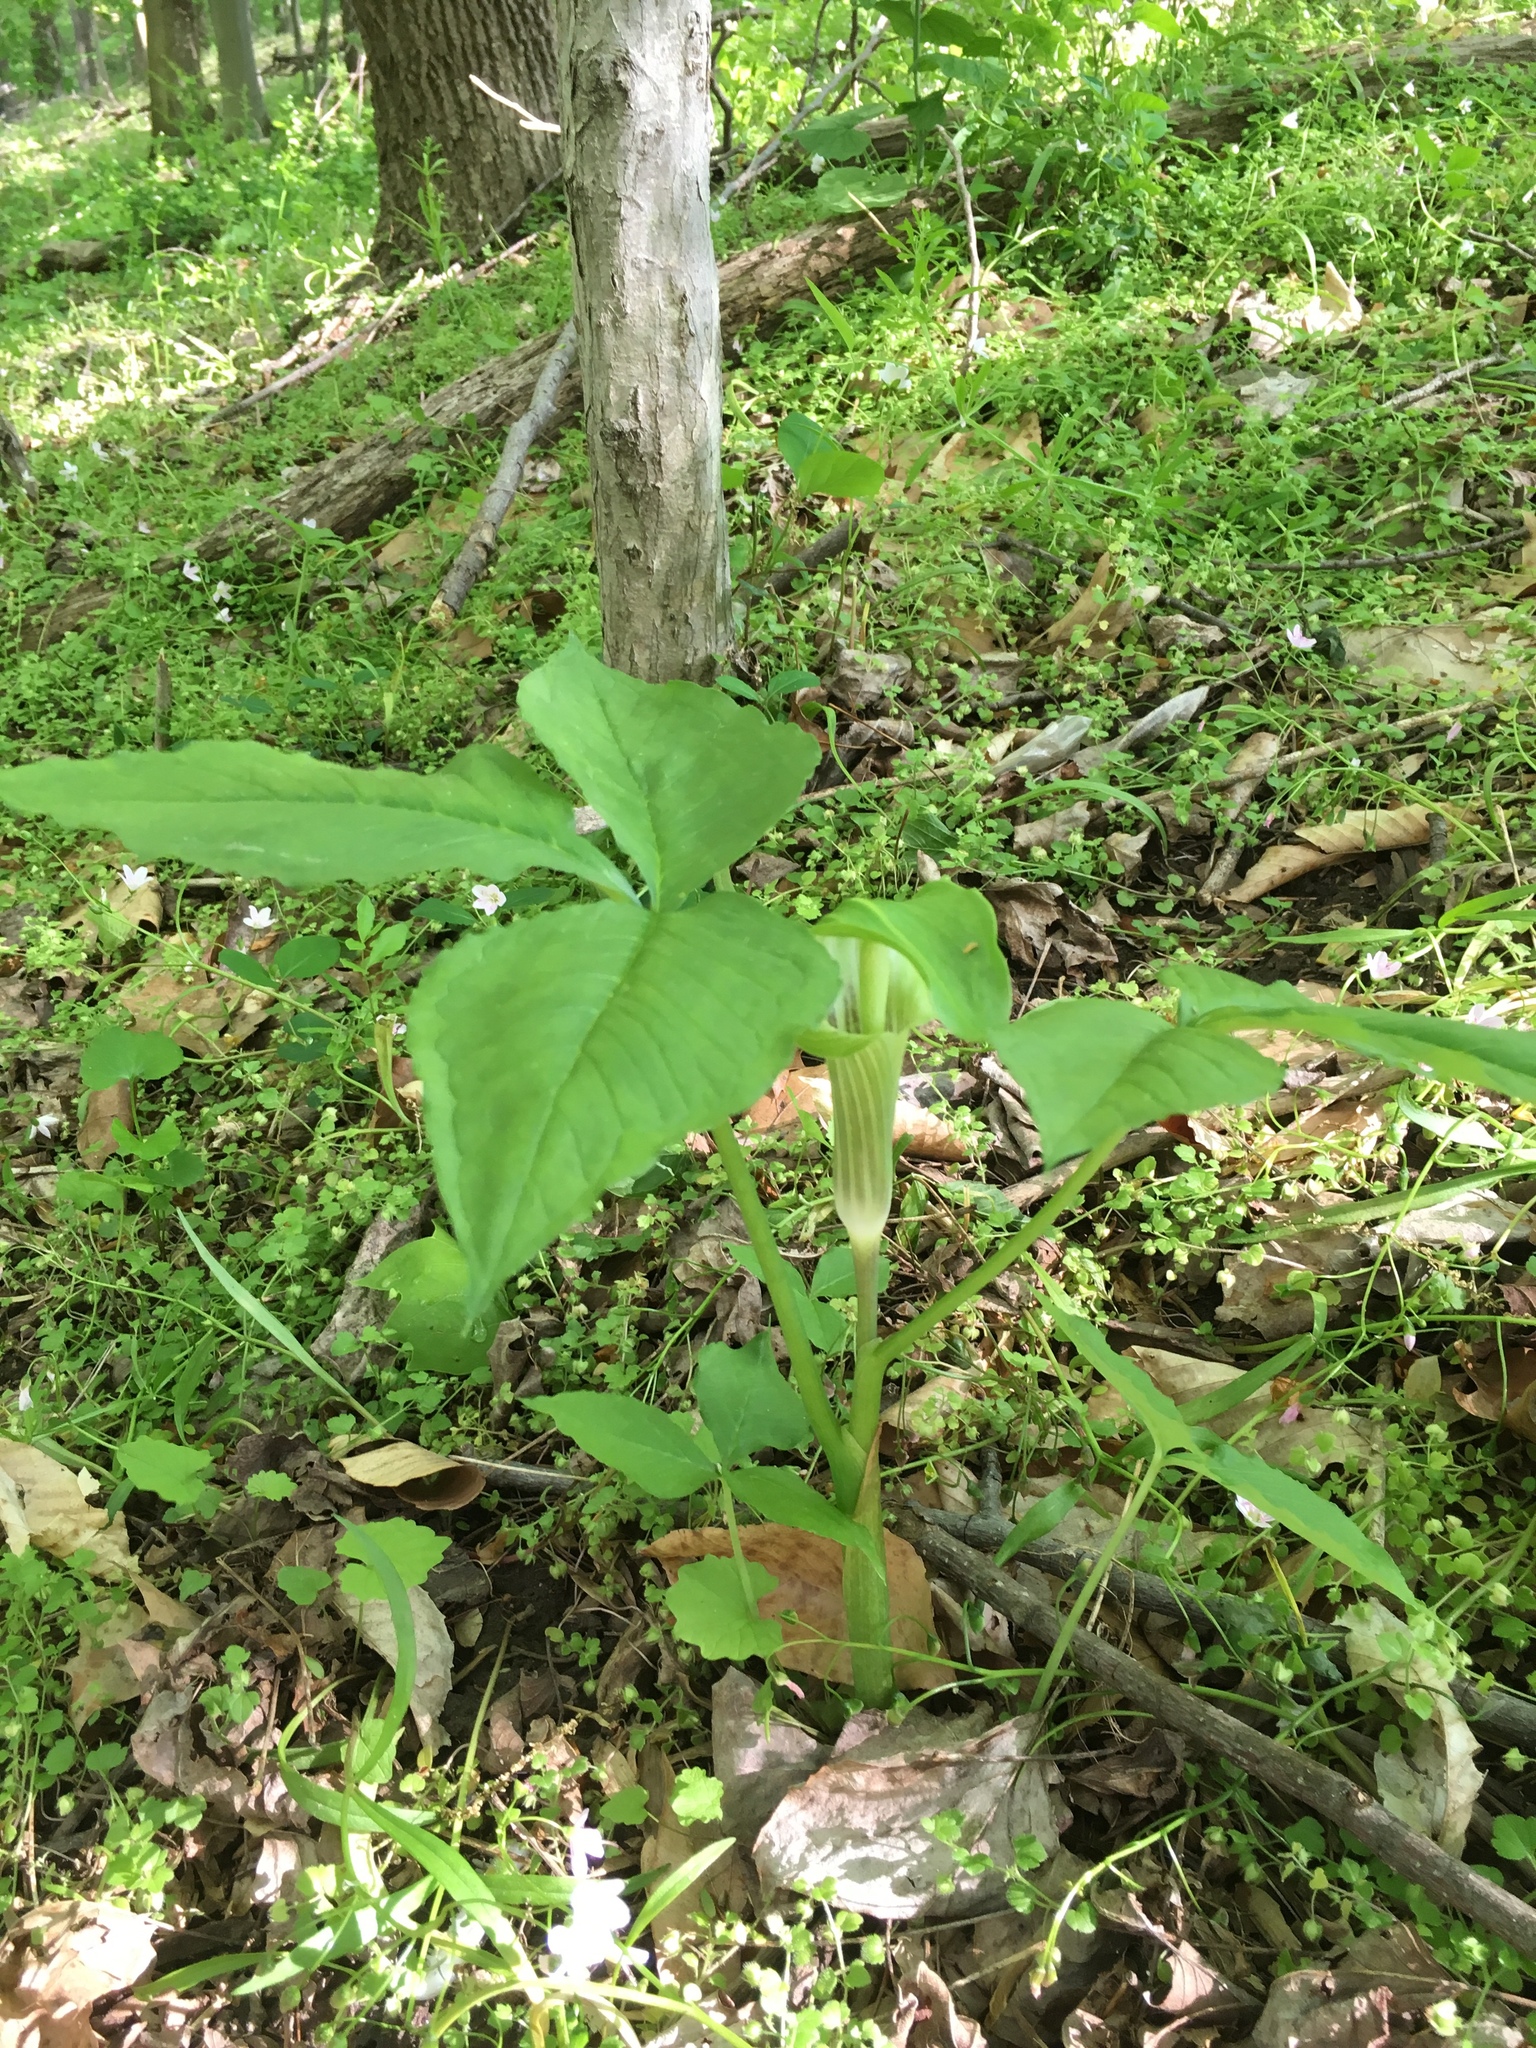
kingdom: Plantae
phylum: Tracheophyta
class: Liliopsida
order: Alismatales
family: Araceae
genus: Arisaema
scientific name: Arisaema triphyllum
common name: Jack-in-the-pulpit
